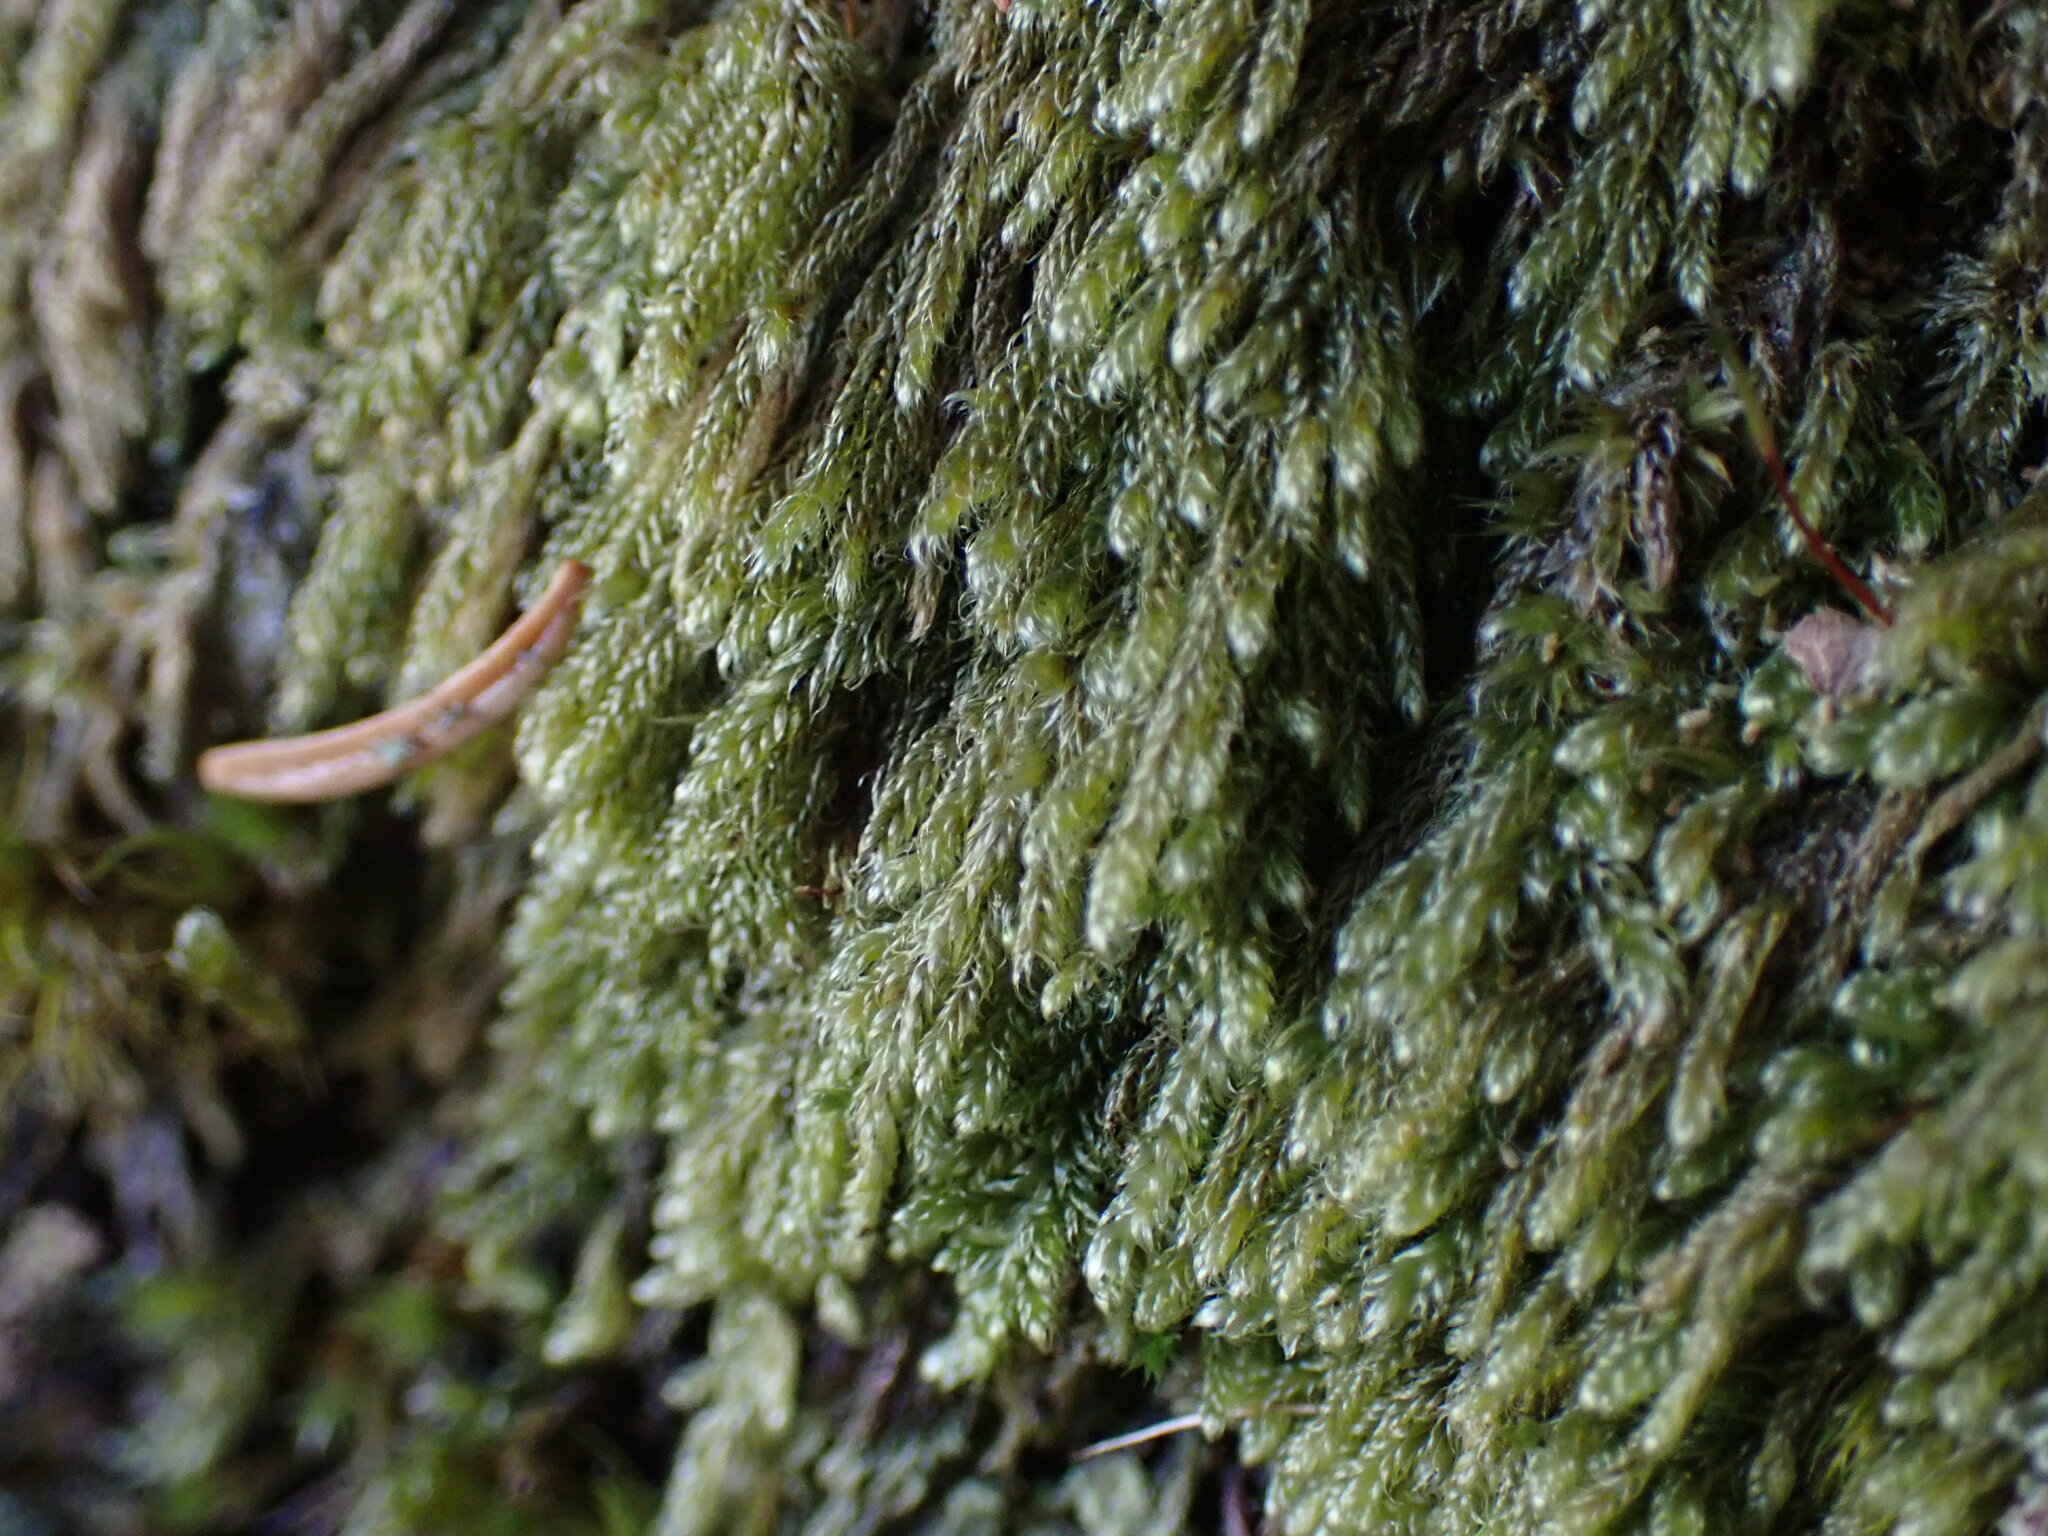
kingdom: Plantae
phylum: Bryophyta
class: Bryopsida
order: Hypnales
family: Pylaisiadelphaceae
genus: Trochophyllohypnum
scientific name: Trochophyllohypnum circinale
